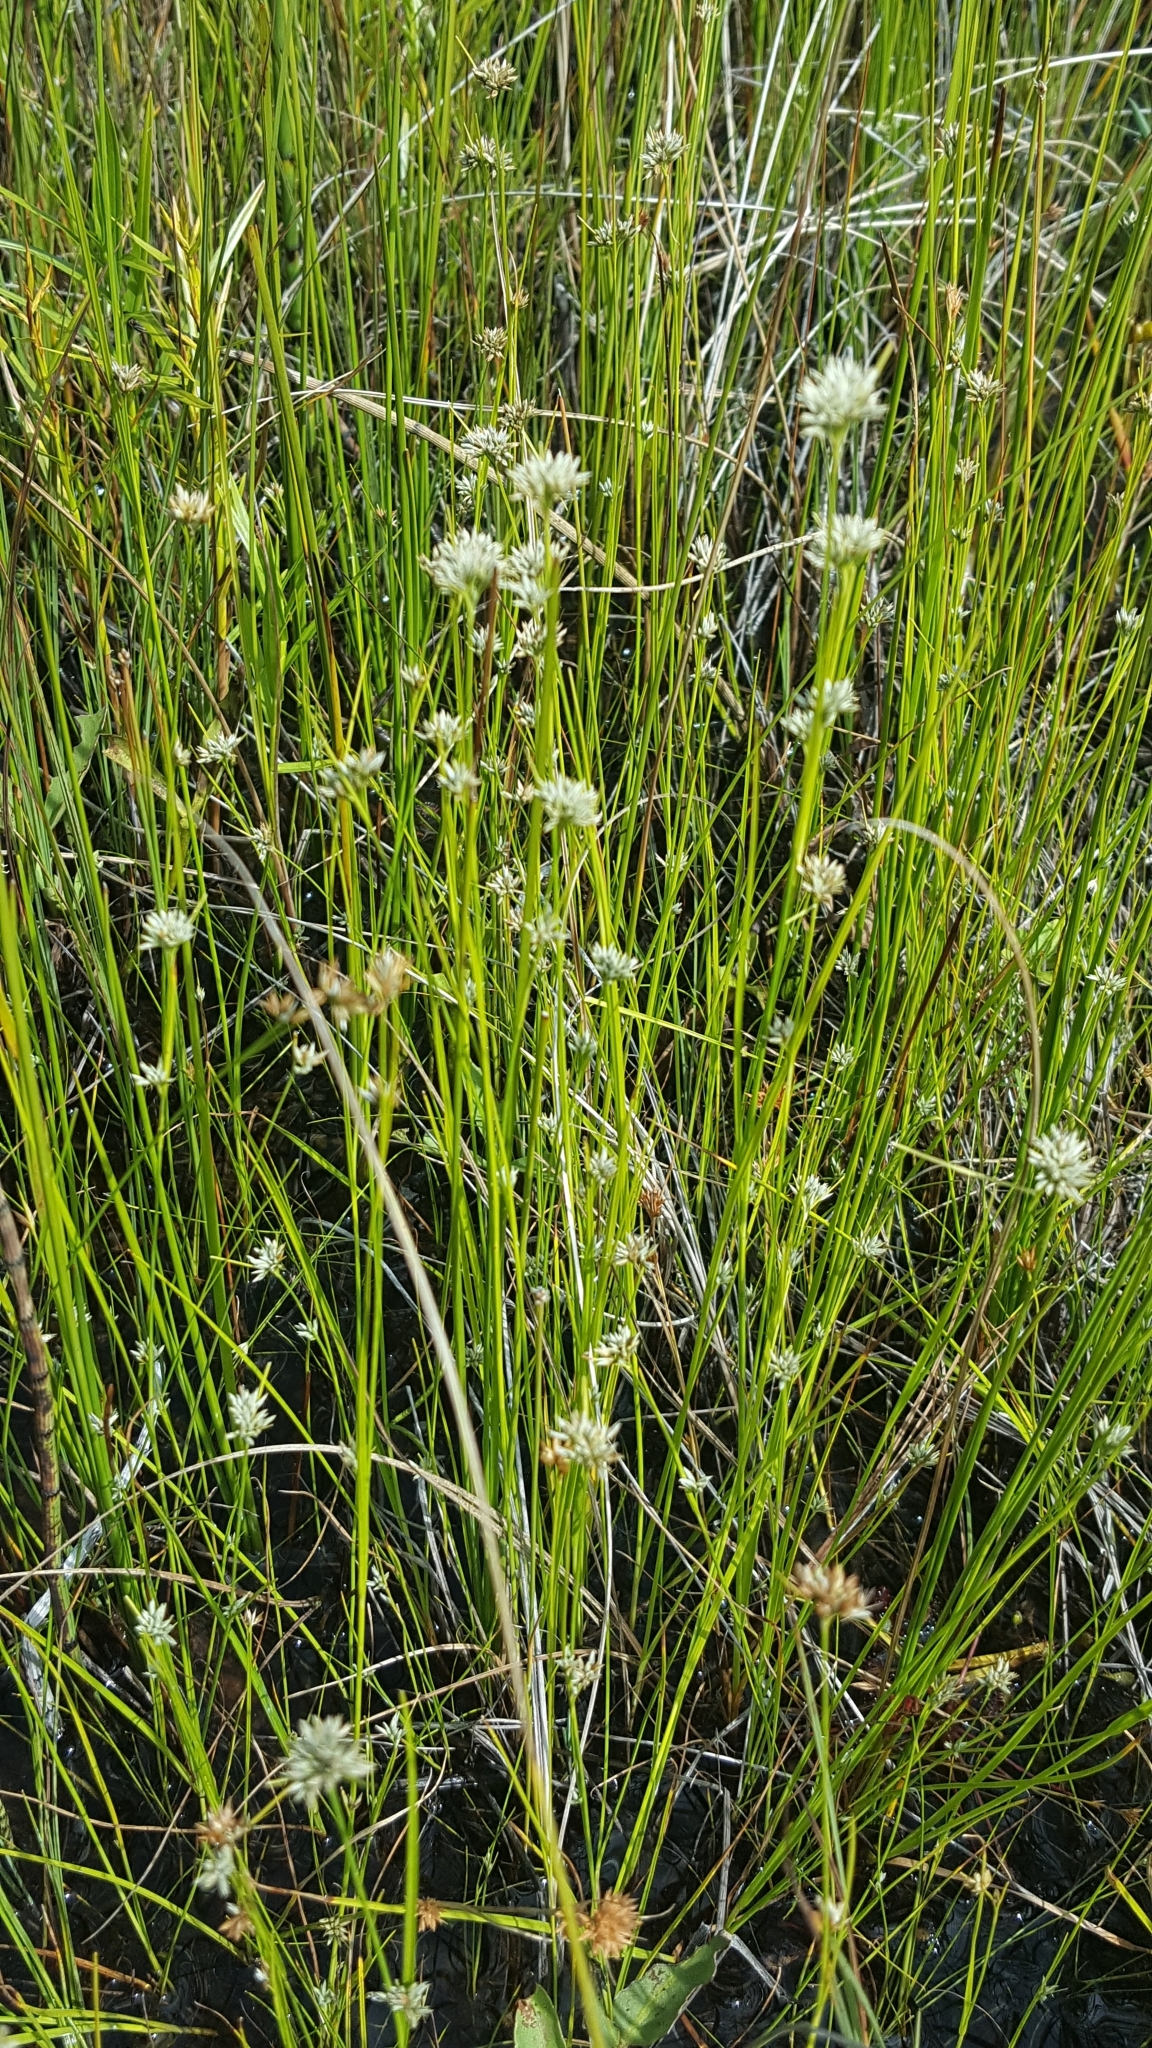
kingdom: Plantae
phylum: Tracheophyta
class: Liliopsida
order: Poales
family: Cyperaceae
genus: Rhynchospora
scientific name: Rhynchospora alba
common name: White beak-sedge
